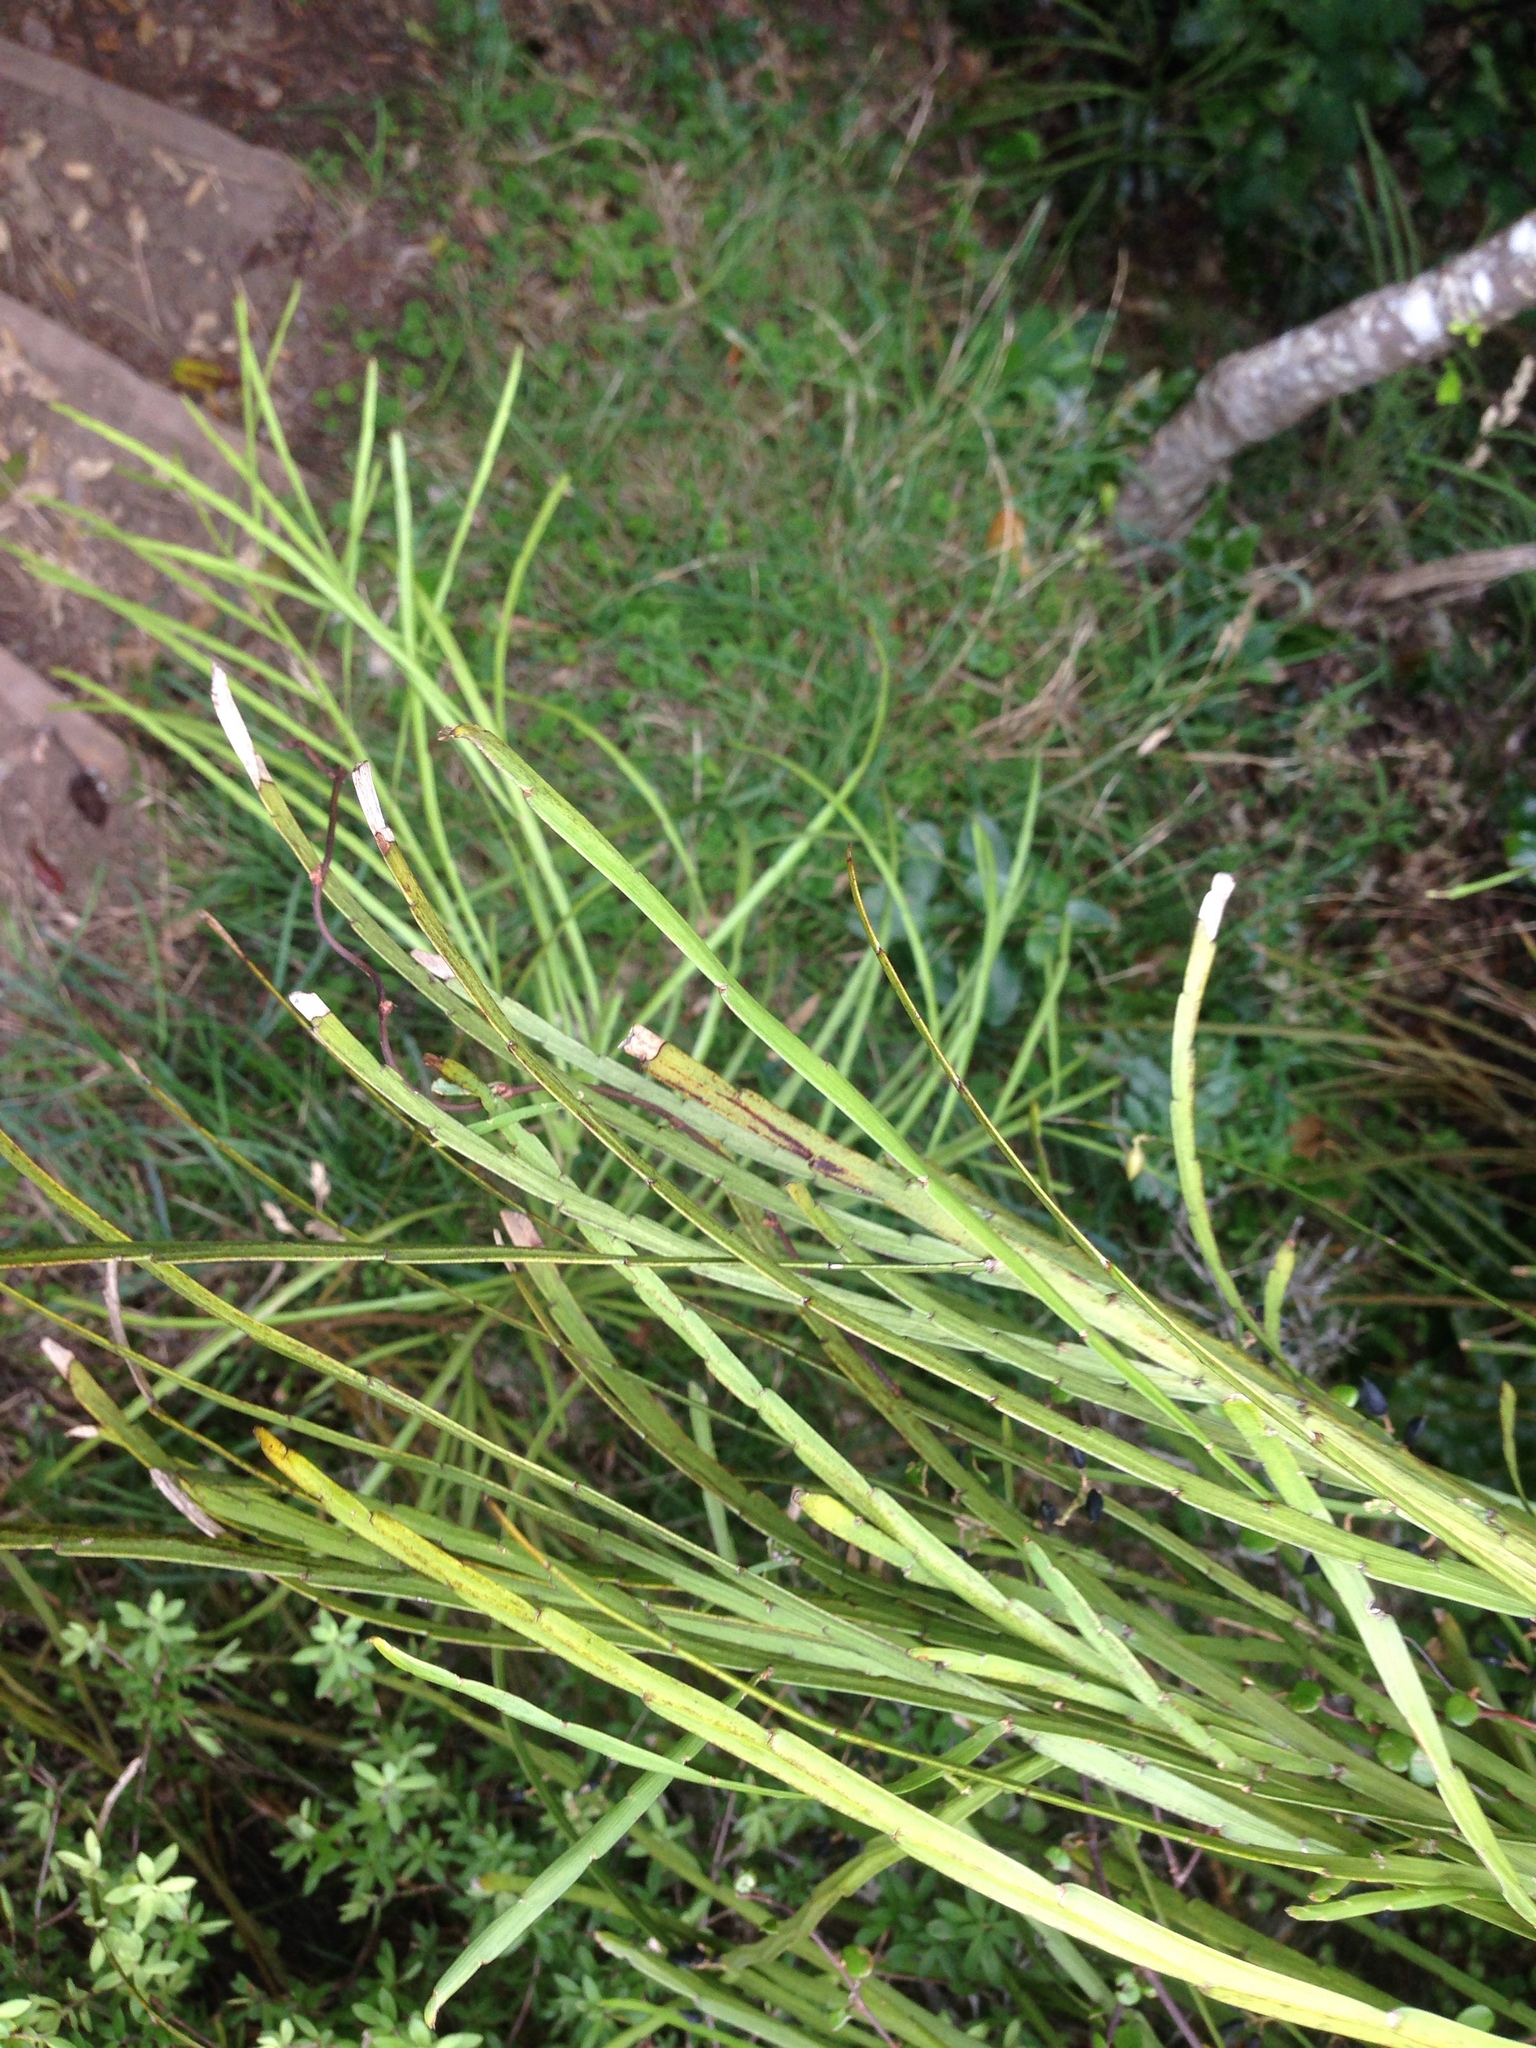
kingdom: Plantae
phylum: Tracheophyta
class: Magnoliopsida
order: Fabales
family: Fabaceae
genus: Carmichaelia
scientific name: Carmichaelia australis
